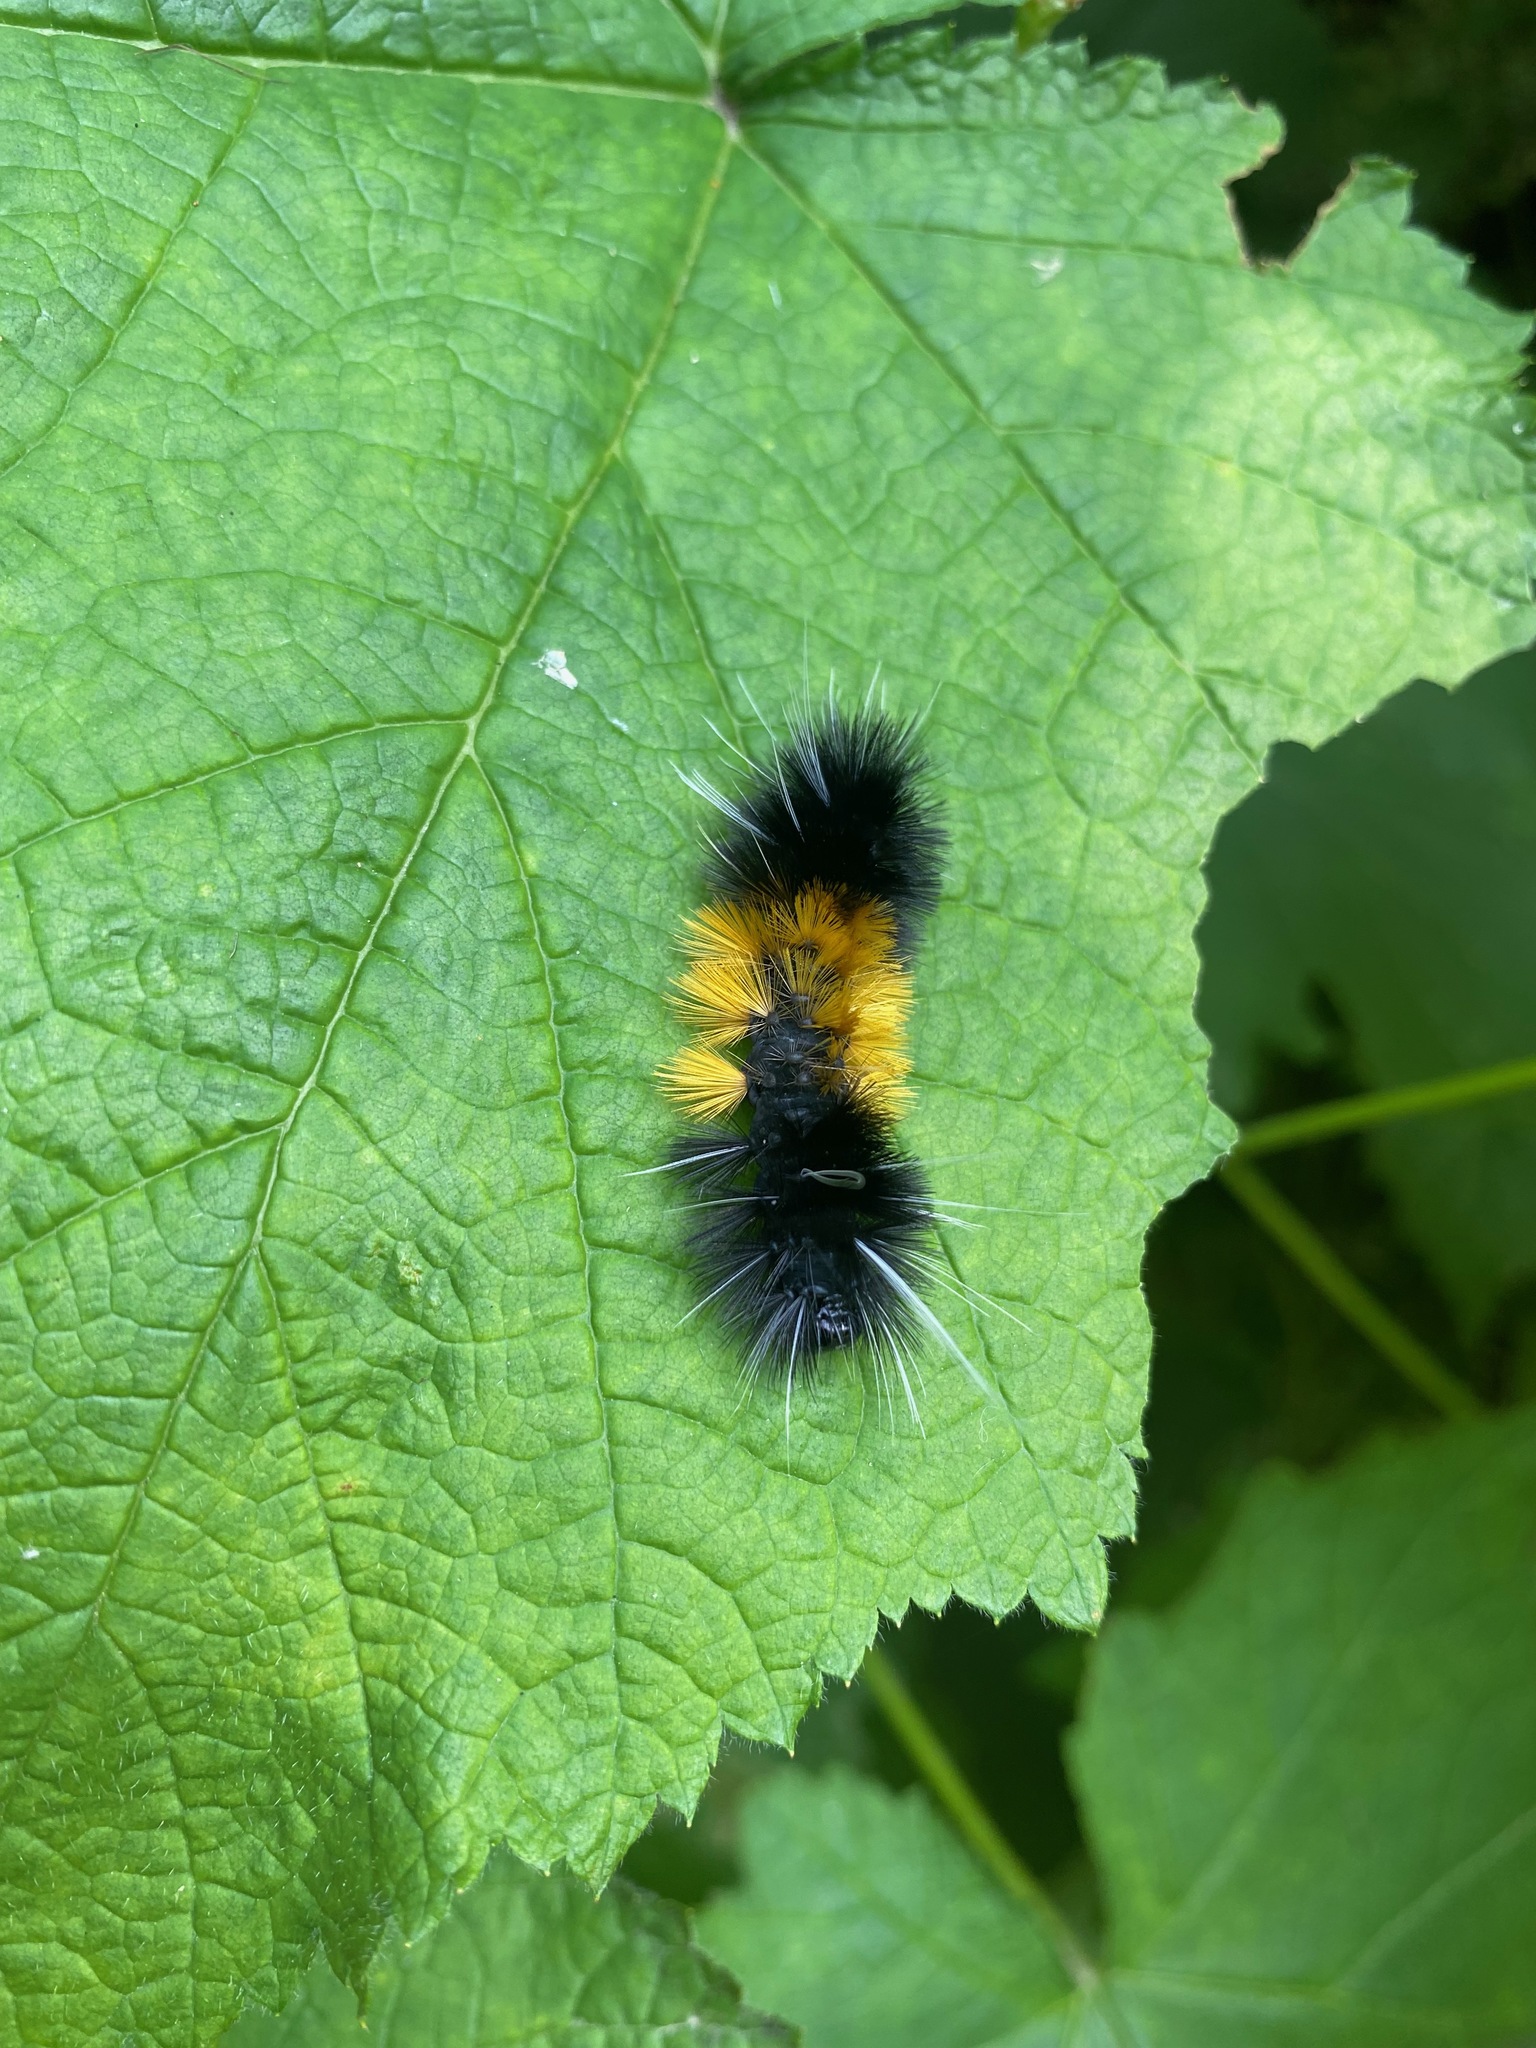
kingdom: Animalia
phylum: Arthropoda
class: Insecta
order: Lepidoptera
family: Erebidae
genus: Lophocampa
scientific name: Lophocampa maculata
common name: Spotted tussock moth
